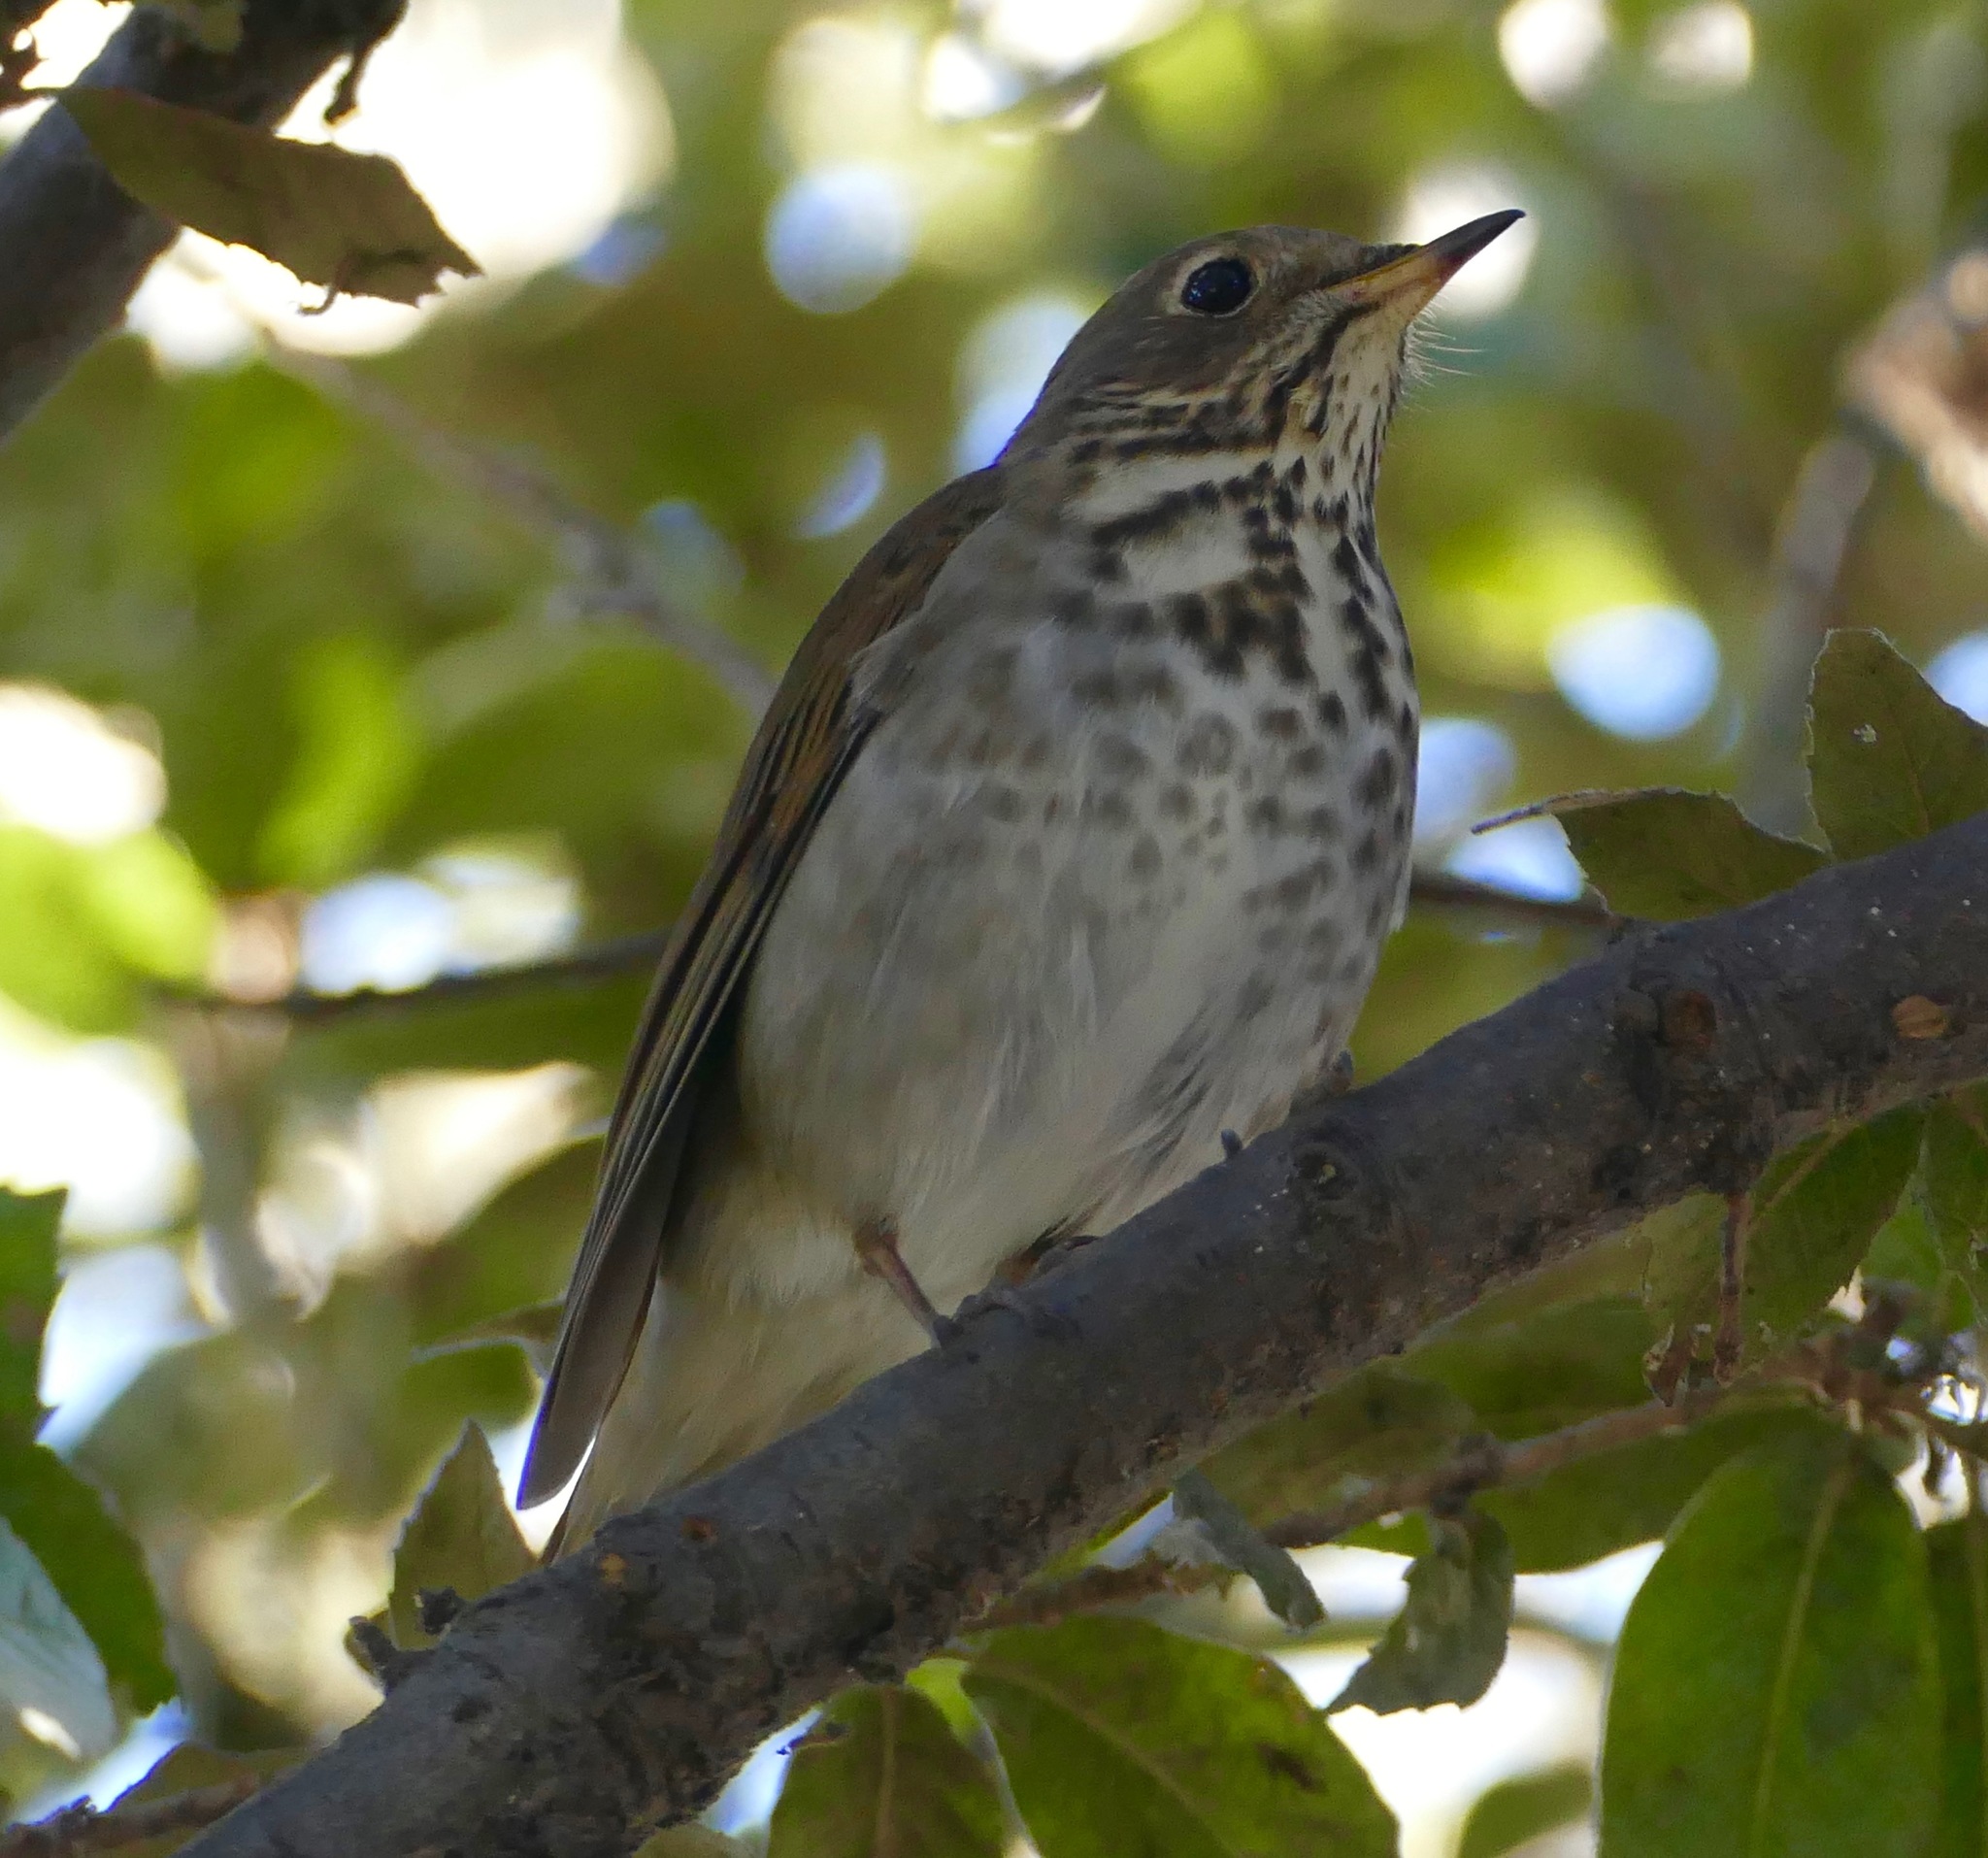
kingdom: Animalia
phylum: Chordata
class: Aves
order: Passeriformes
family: Turdidae
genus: Catharus
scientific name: Catharus ustulatus
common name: Swainson's thrush
